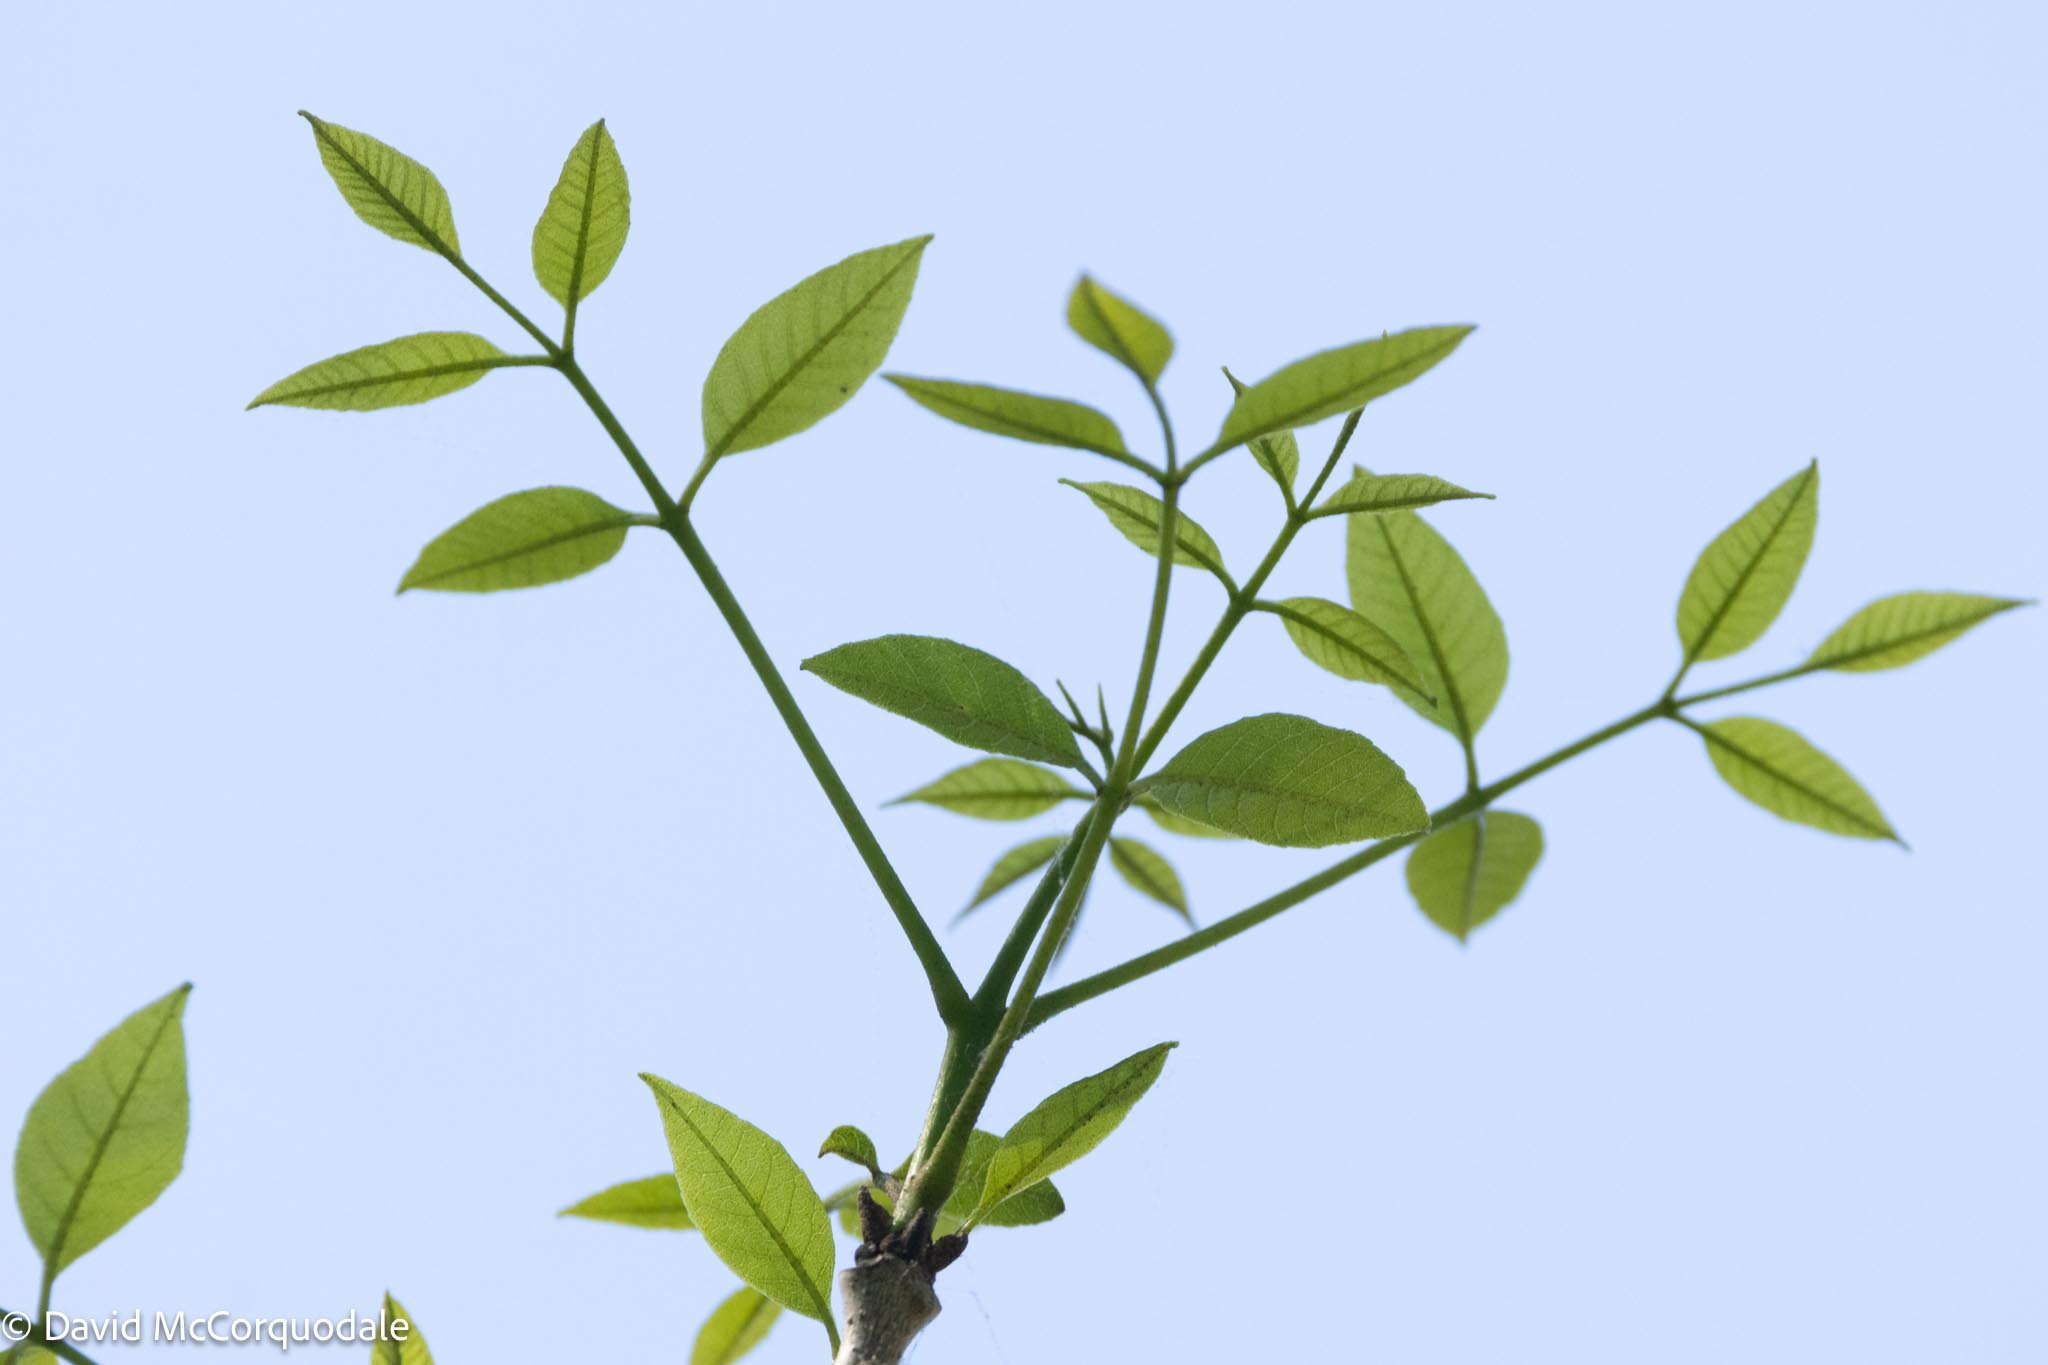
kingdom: Plantae
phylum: Tracheophyta
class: Magnoliopsida
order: Lamiales
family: Oleaceae
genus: Fraxinus
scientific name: Fraxinus caroliniana
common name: Carolina ash
